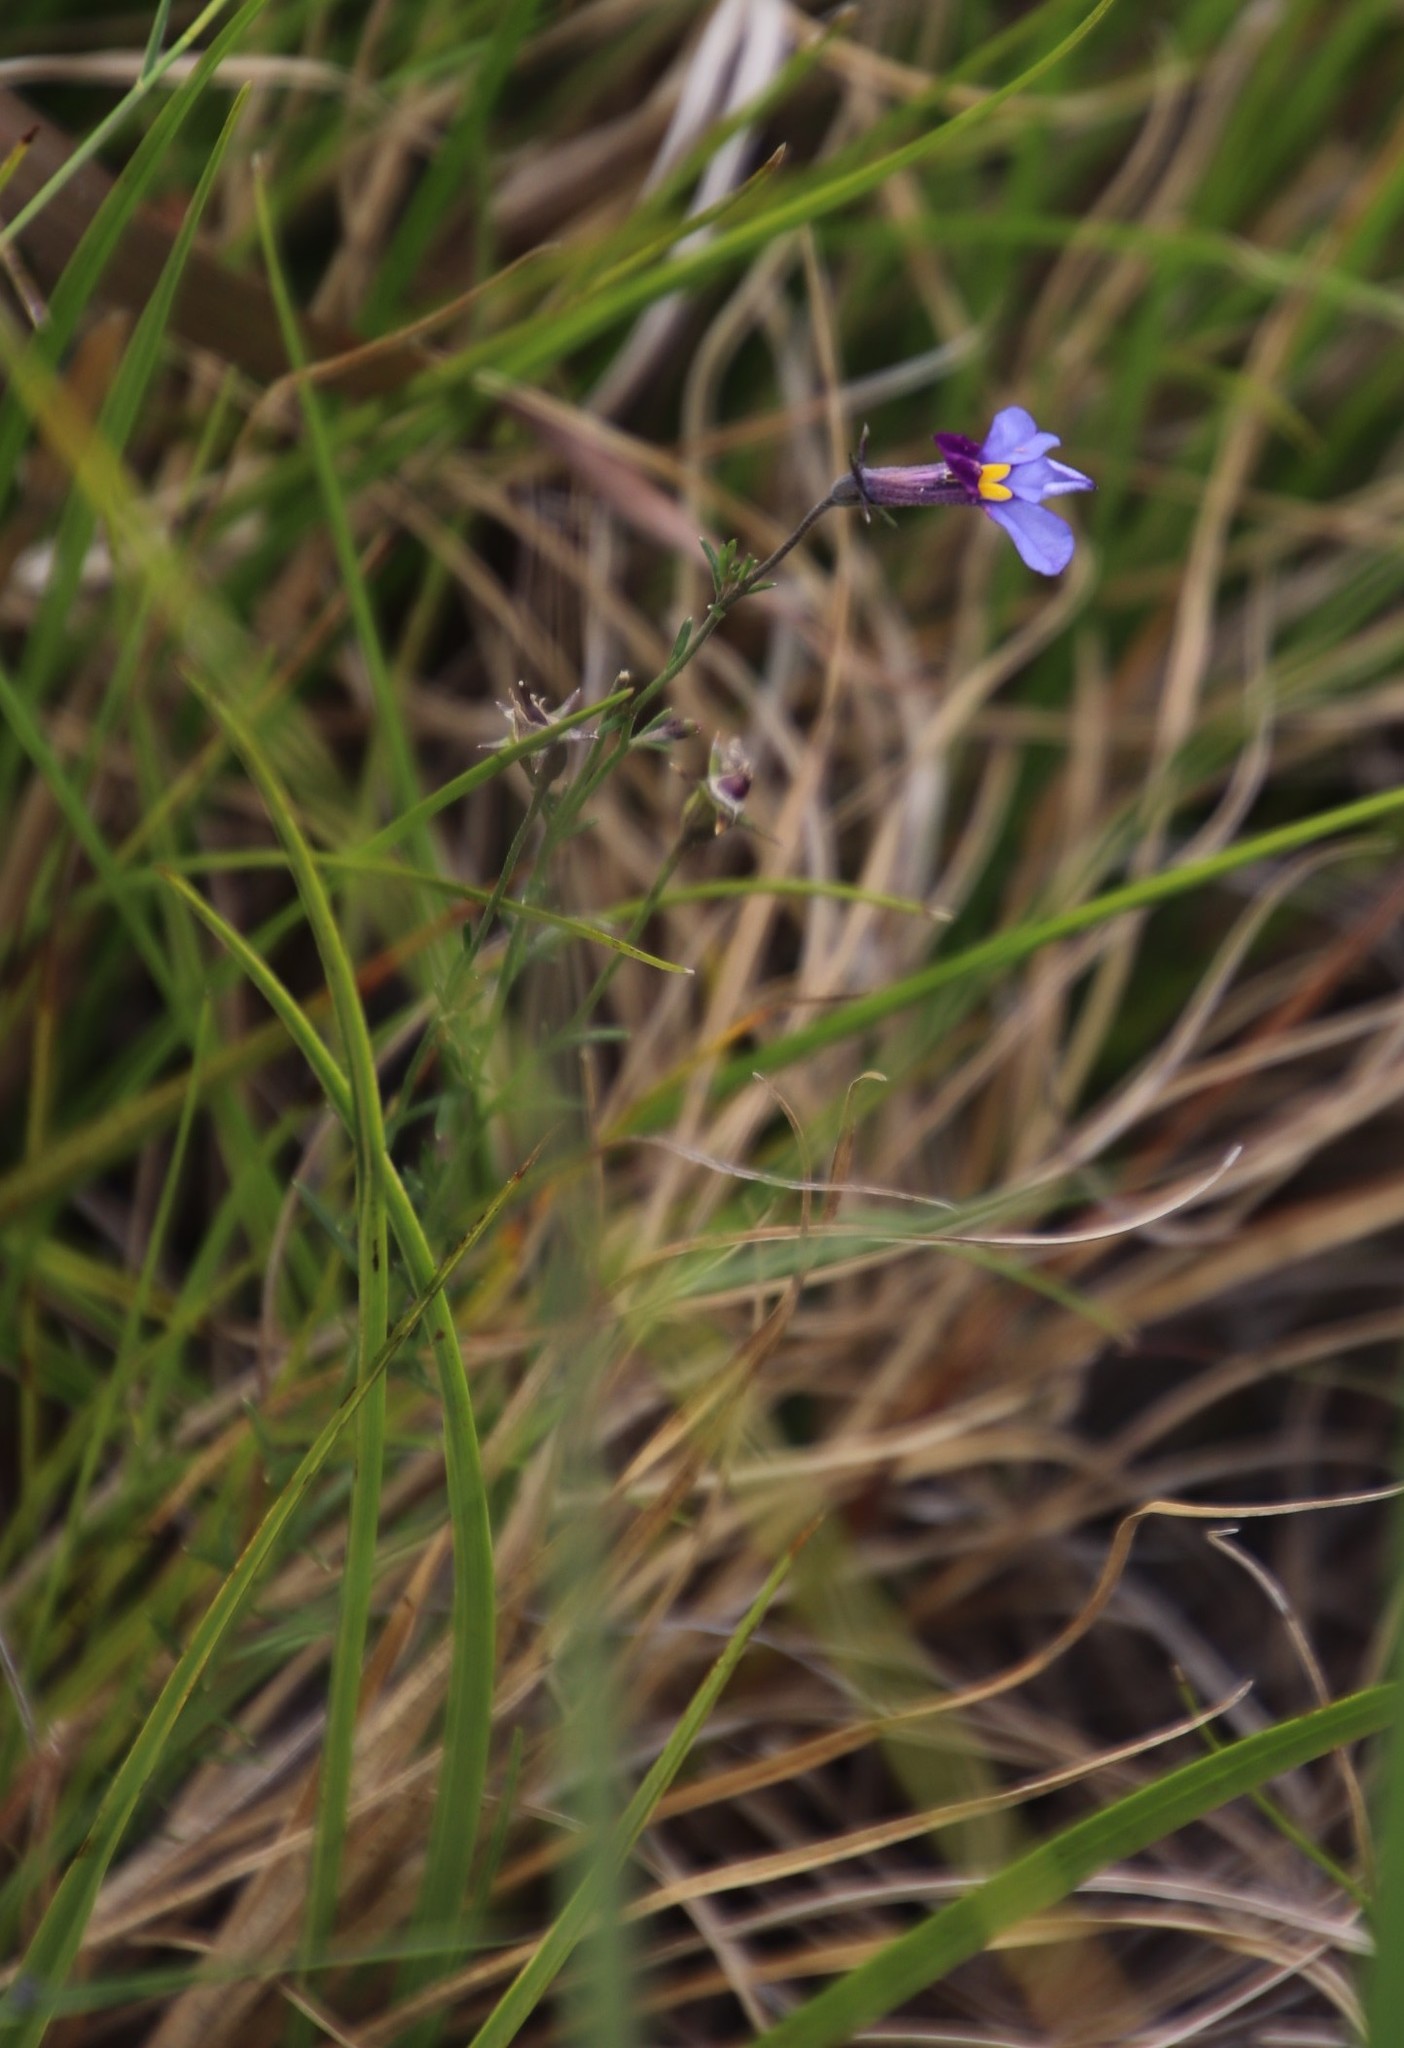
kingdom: Plantae
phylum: Tracheophyta
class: Magnoliopsida
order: Asterales
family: Campanulaceae
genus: Monopsis
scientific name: Monopsis decipiens
